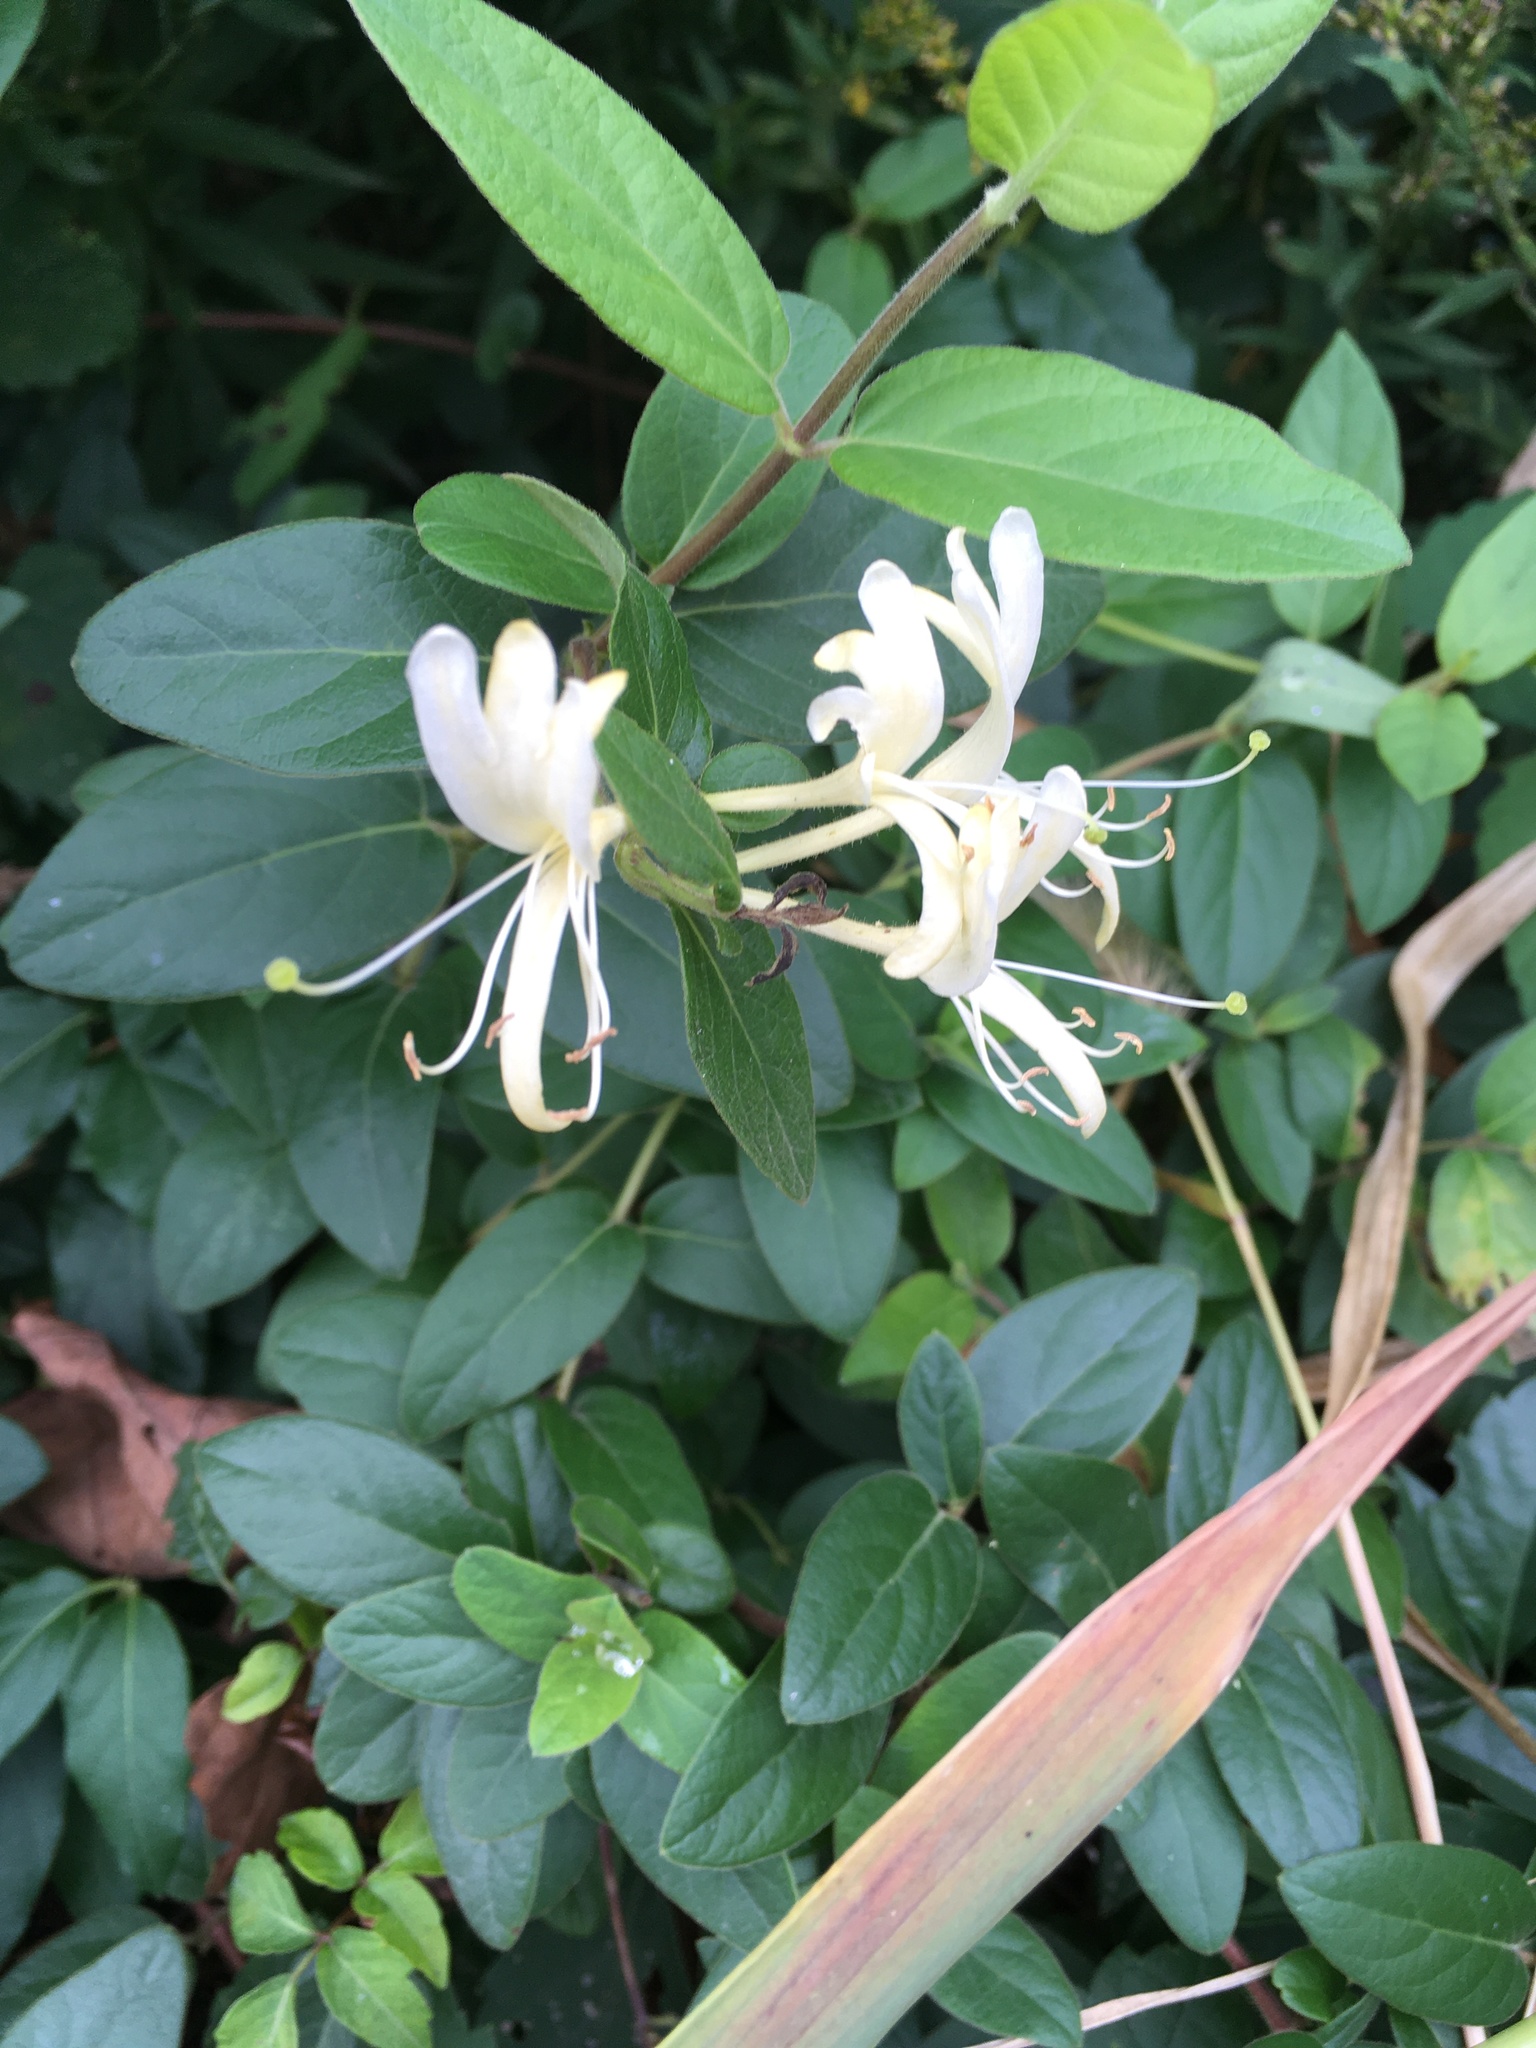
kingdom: Plantae
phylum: Tracheophyta
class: Magnoliopsida
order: Dipsacales
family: Caprifoliaceae
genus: Lonicera
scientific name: Lonicera japonica
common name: Japanese honeysuckle
